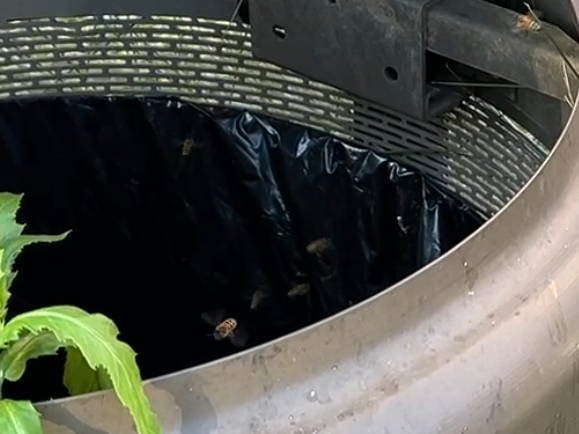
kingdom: Animalia
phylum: Arthropoda
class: Insecta
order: Hymenoptera
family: Apidae
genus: Apis
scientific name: Apis mellifera
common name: Honey bee
